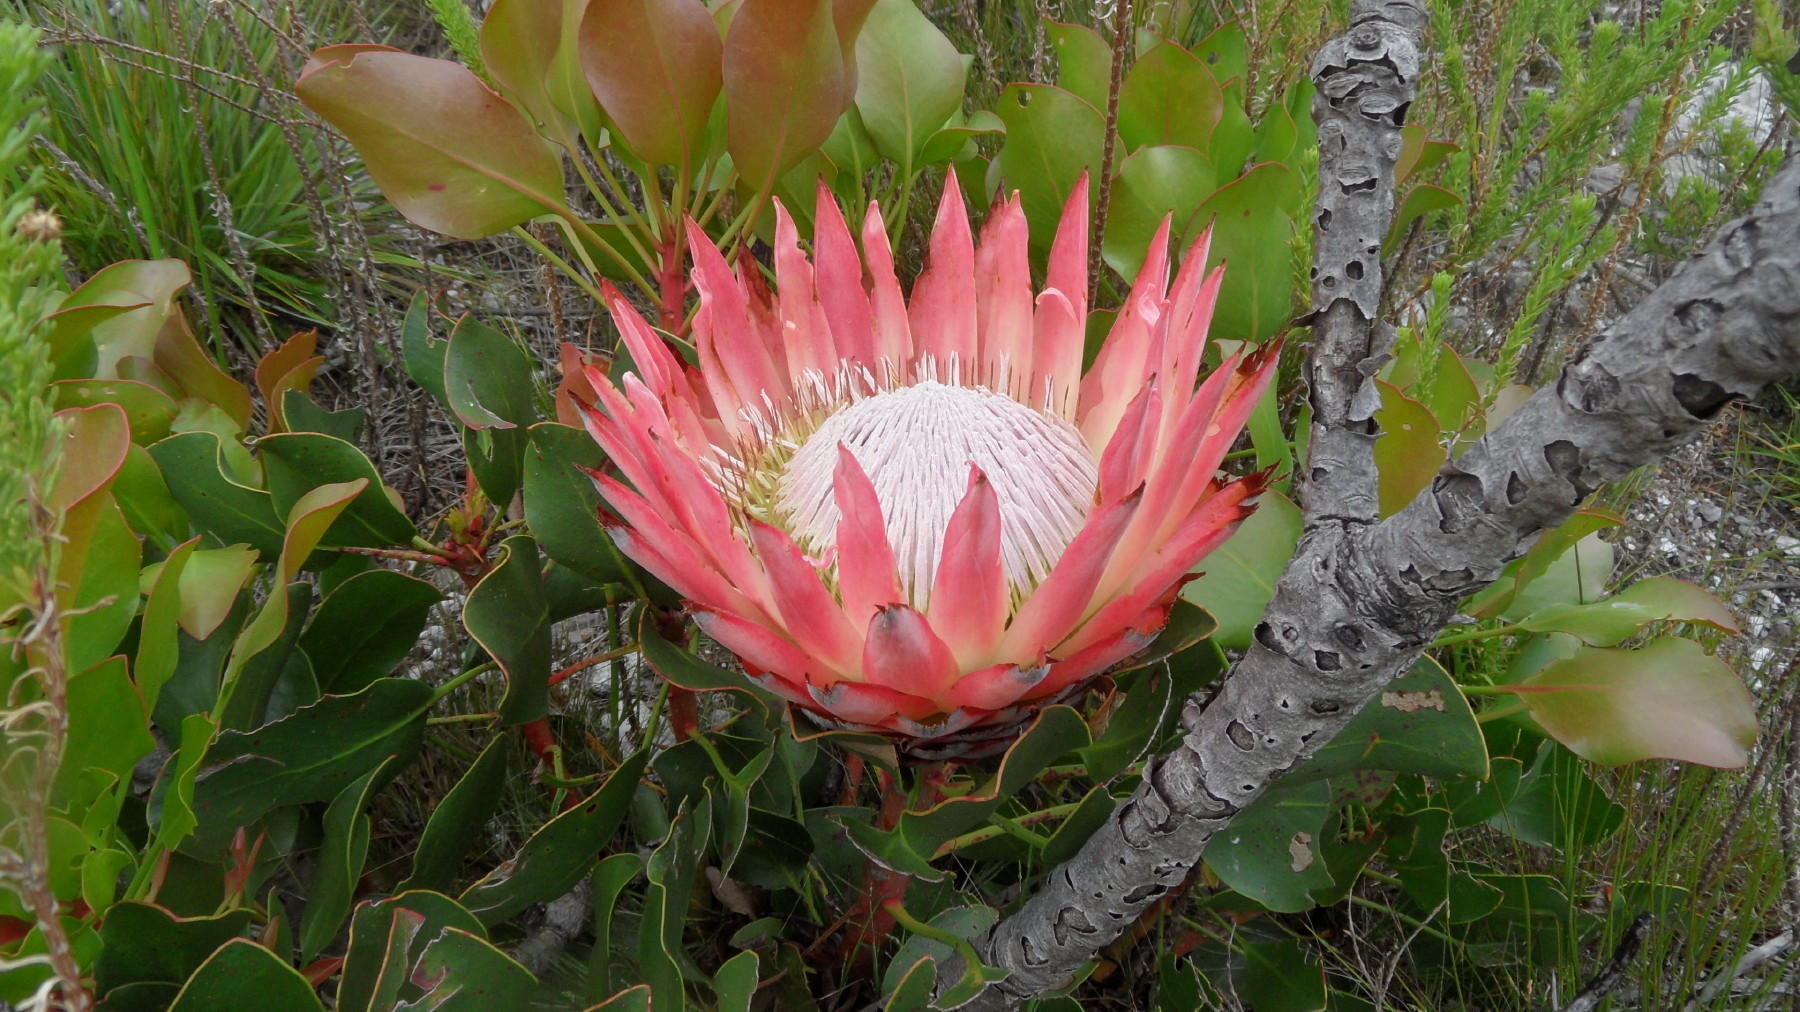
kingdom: Plantae
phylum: Tracheophyta
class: Magnoliopsida
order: Proteales
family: Proteaceae
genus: Protea
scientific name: Protea cynaroides
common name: King protea
